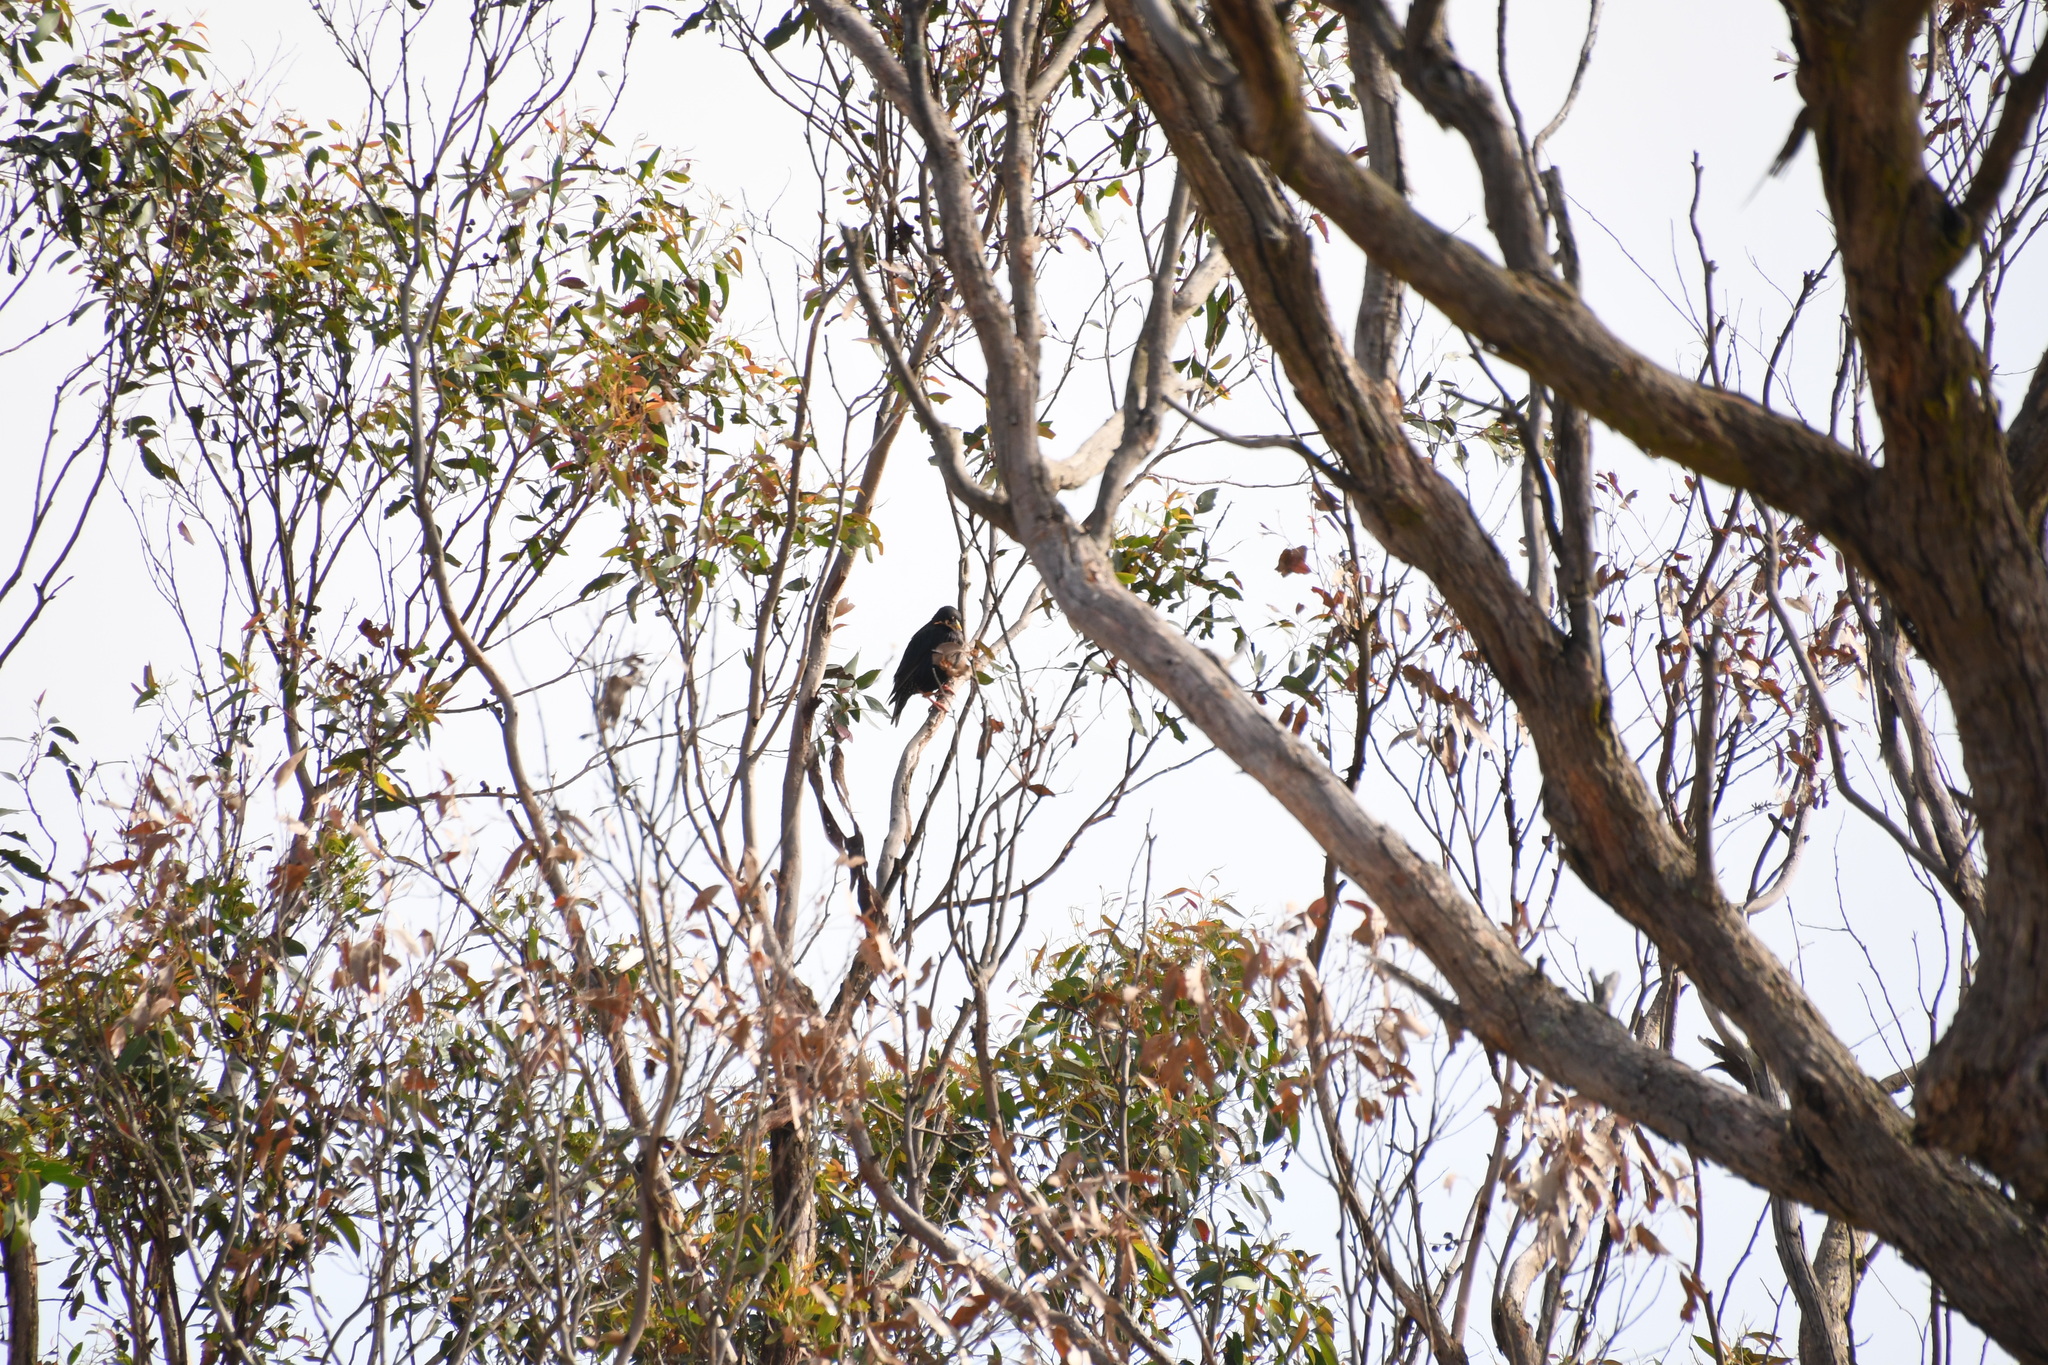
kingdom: Animalia
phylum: Chordata
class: Aves
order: Passeriformes
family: Sturnidae
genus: Sturnus
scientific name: Sturnus vulgaris
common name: Common starling
